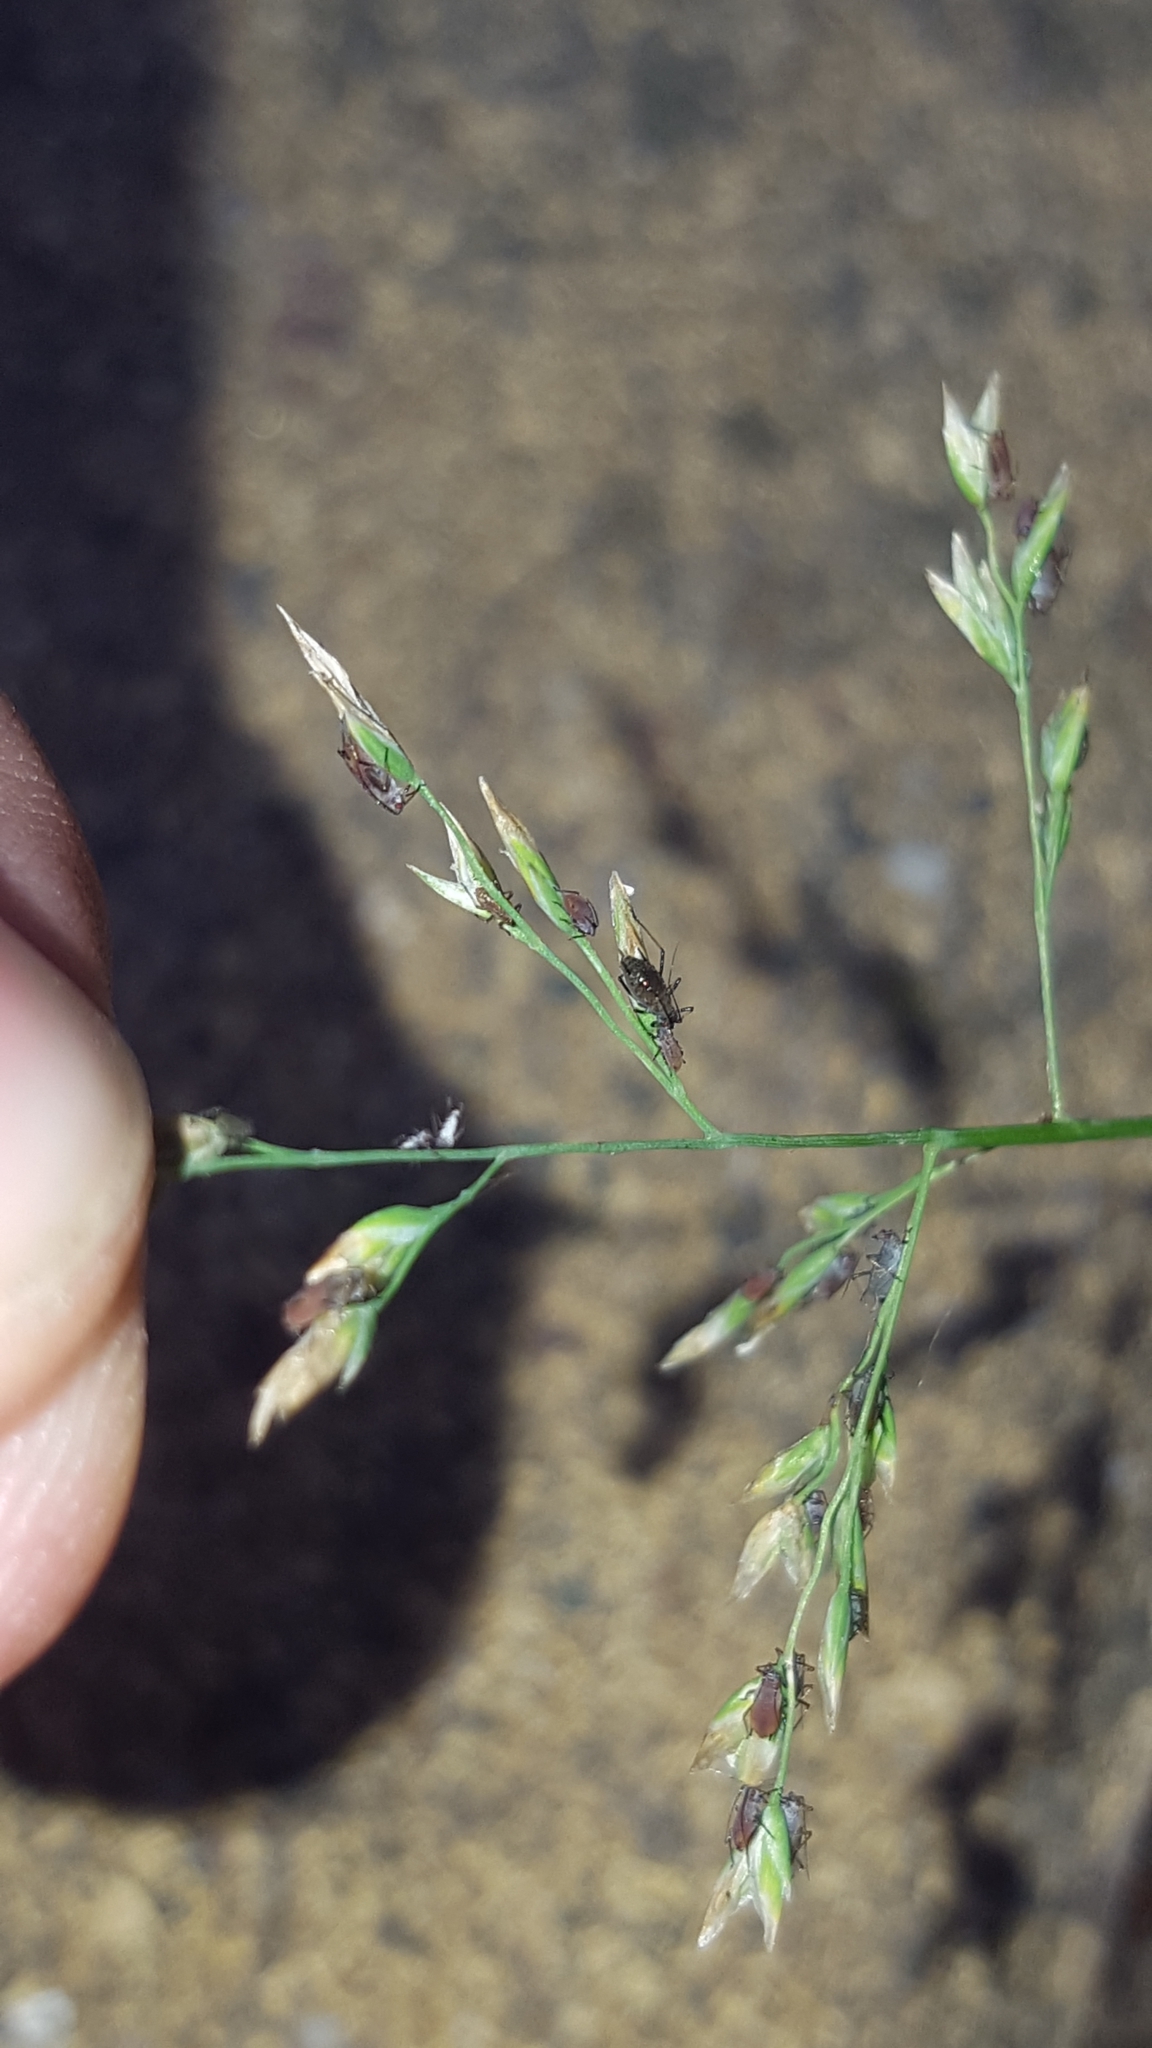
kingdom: Animalia
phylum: Arthropoda
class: Insecta
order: Hemiptera
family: Aphididae
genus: Sitobion
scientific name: Sitobion avenae
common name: English grain aphid
